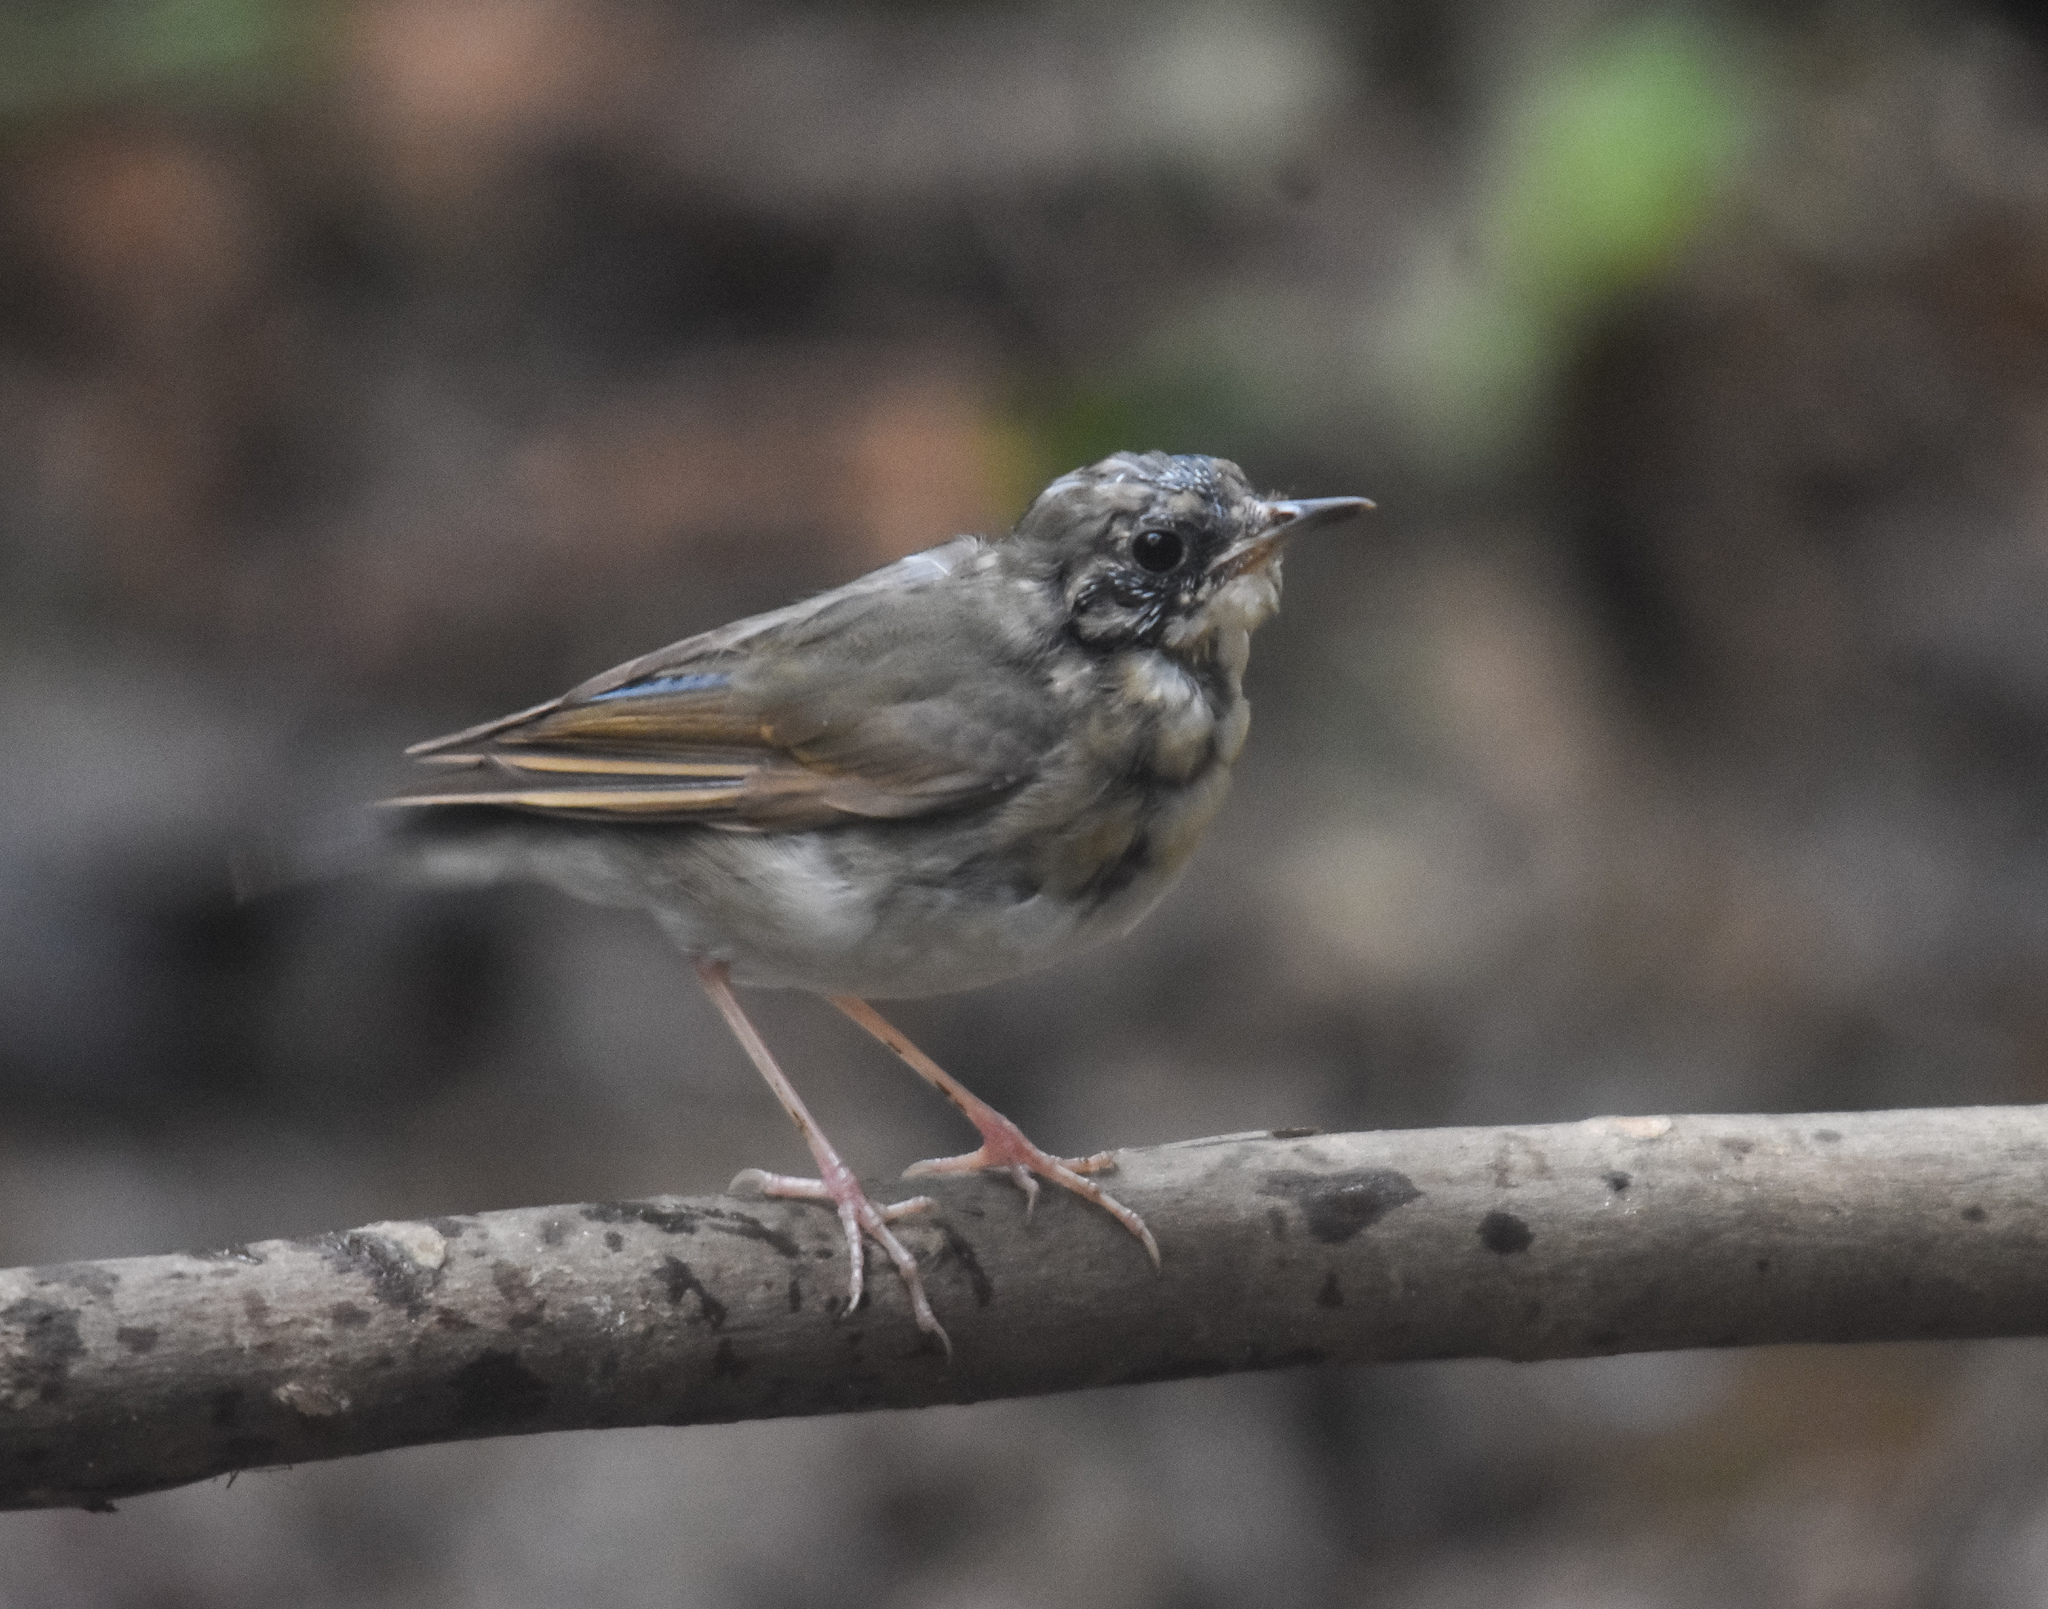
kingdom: Animalia
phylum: Chordata
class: Aves
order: Passeriformes
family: Muscicapidae
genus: Luscinia
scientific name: Luscinia cyane
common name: Siberian blue robin
